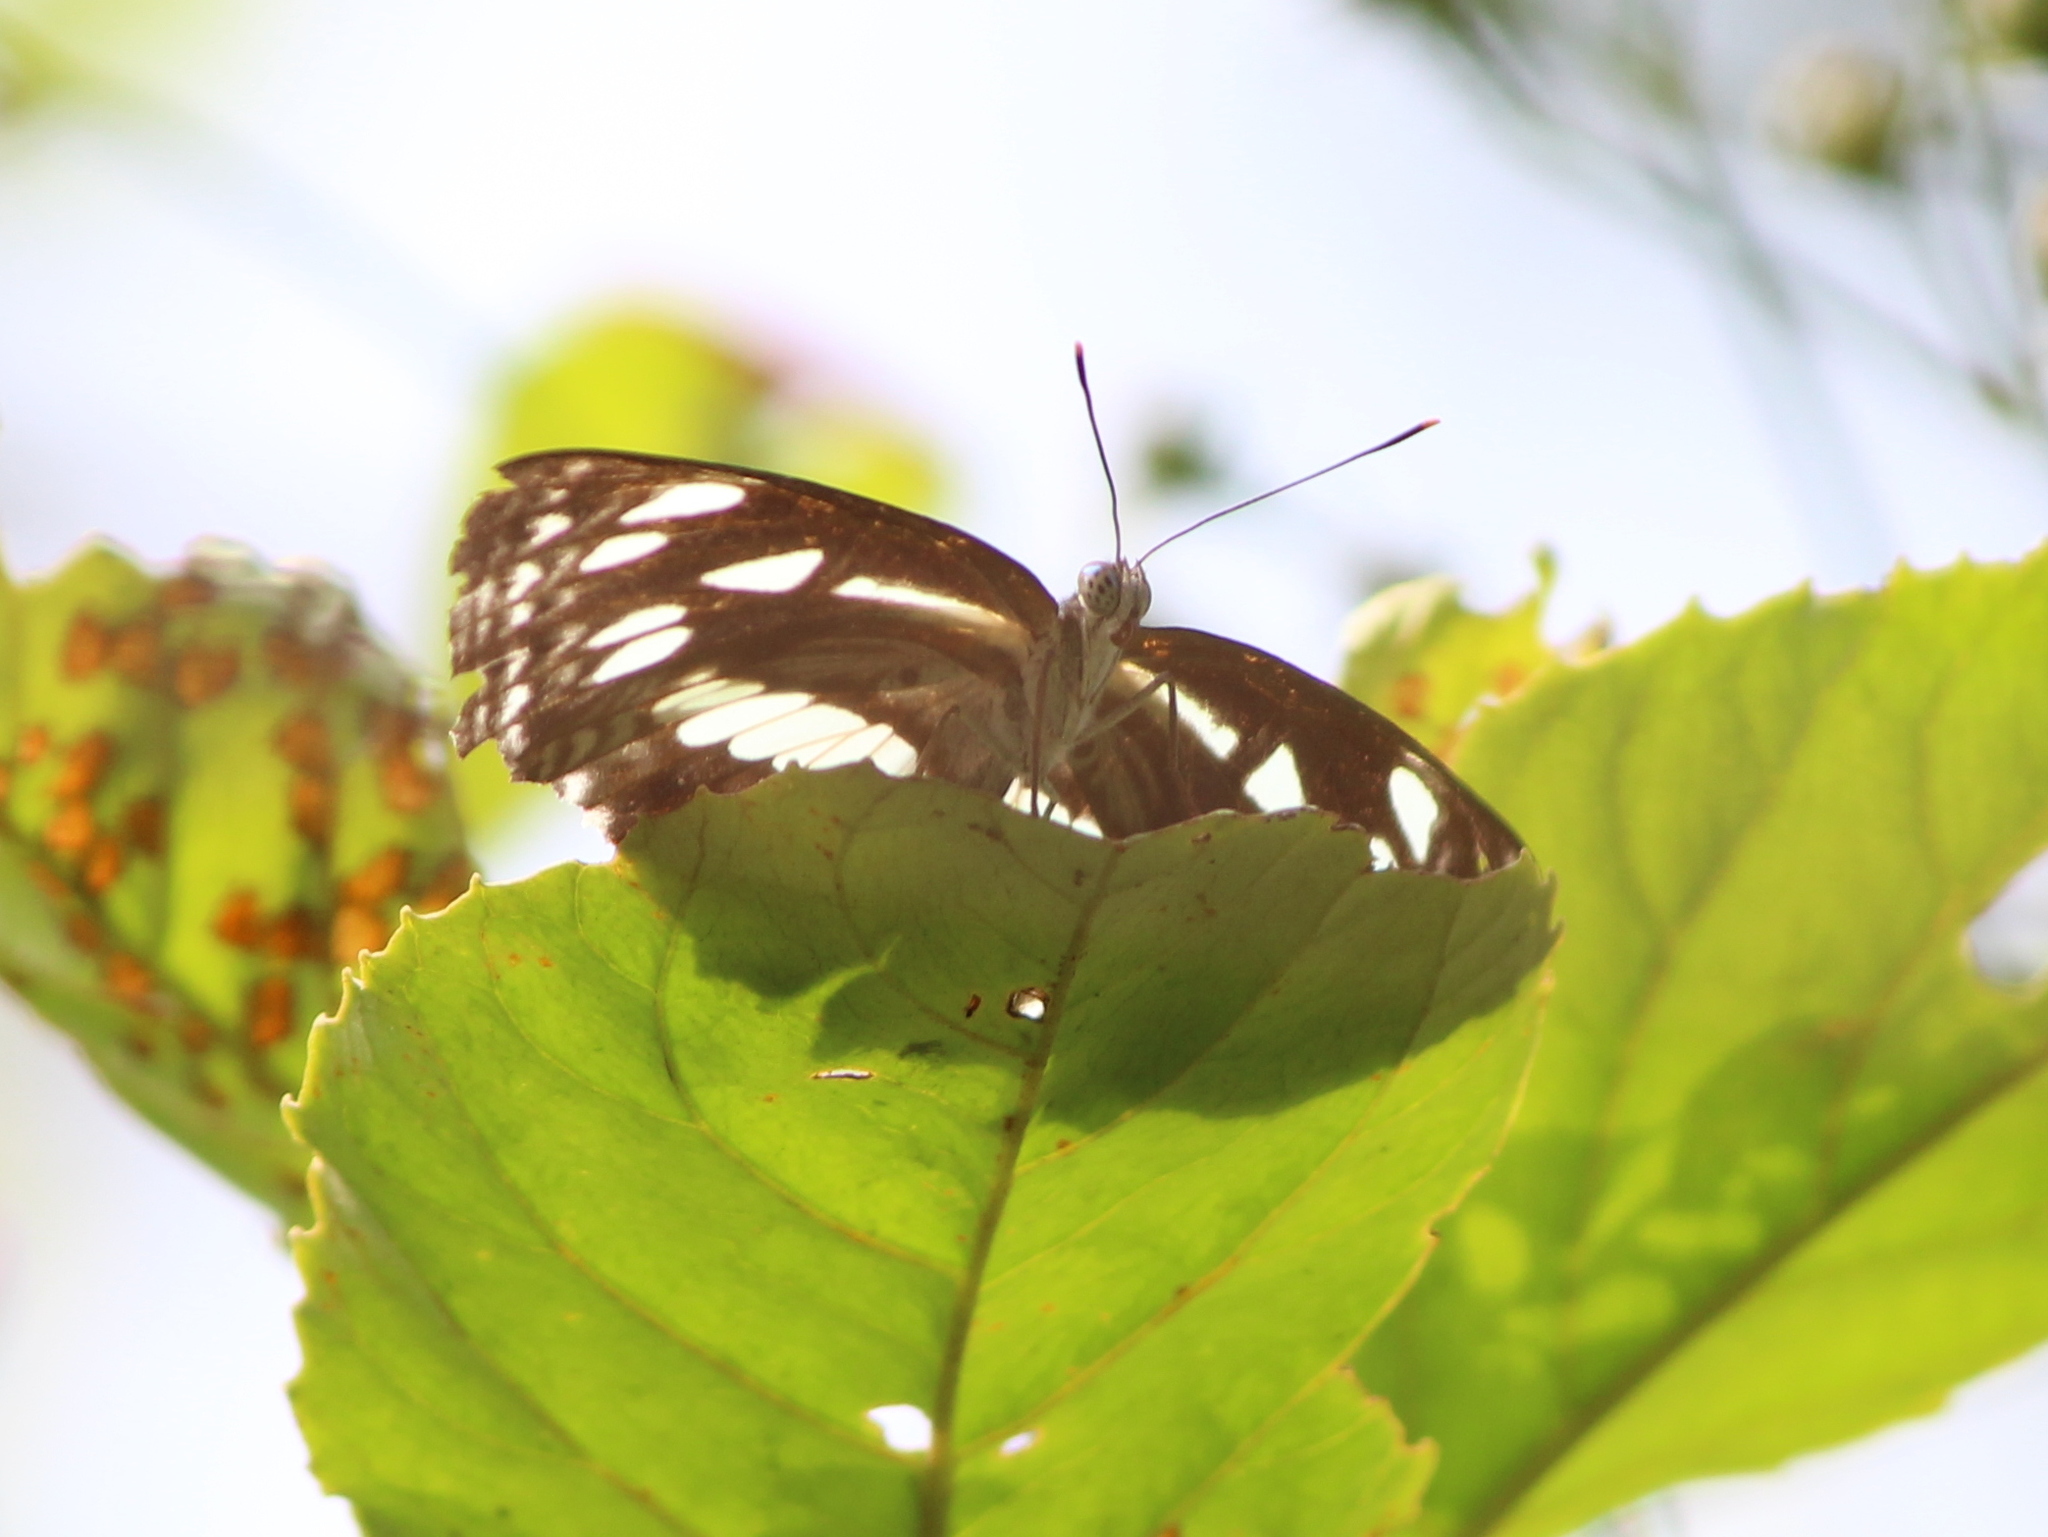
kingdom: Animalia
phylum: Arthropoda
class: Insecta
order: Lepidoptera
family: Nymphalidae
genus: Neptis
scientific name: Neptis jumbah
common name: Chestnut-streaked sailer
